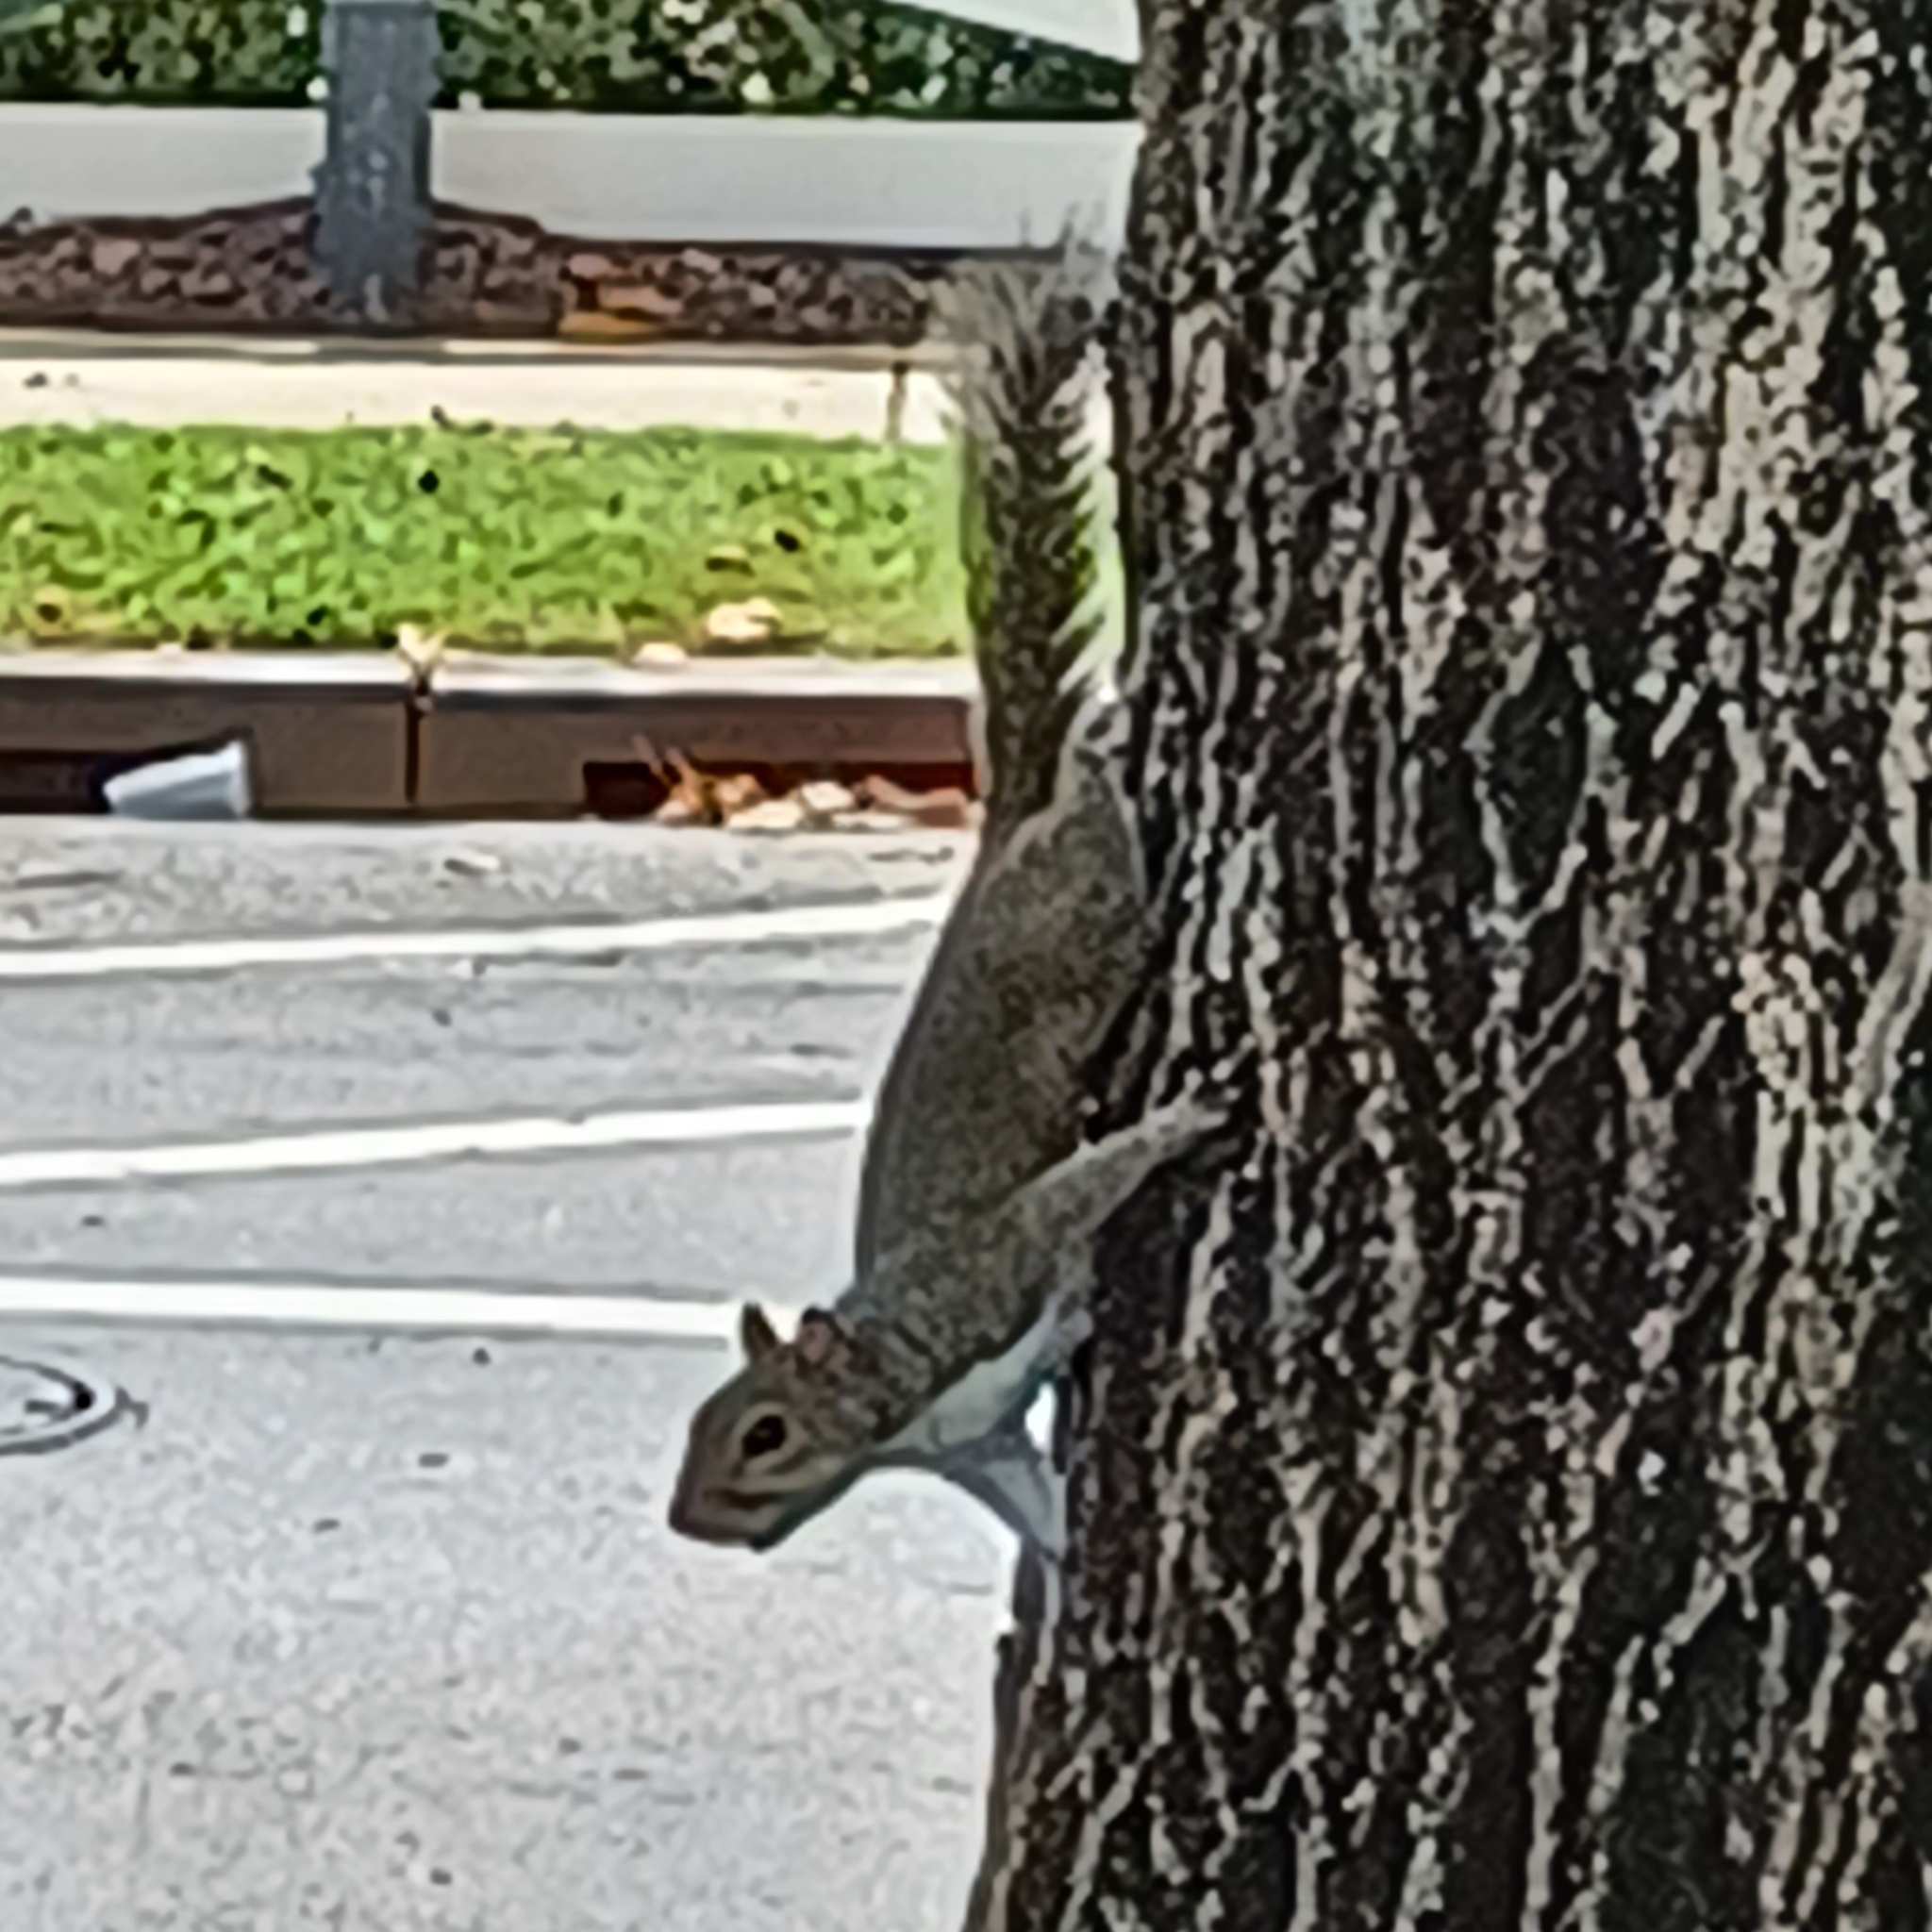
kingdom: Animalia
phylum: Chordata
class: Mammalia
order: Rodentia
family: Sciuridae
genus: Sciurus
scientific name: Sciurus carolinensis
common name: Eastern gray squirrel
